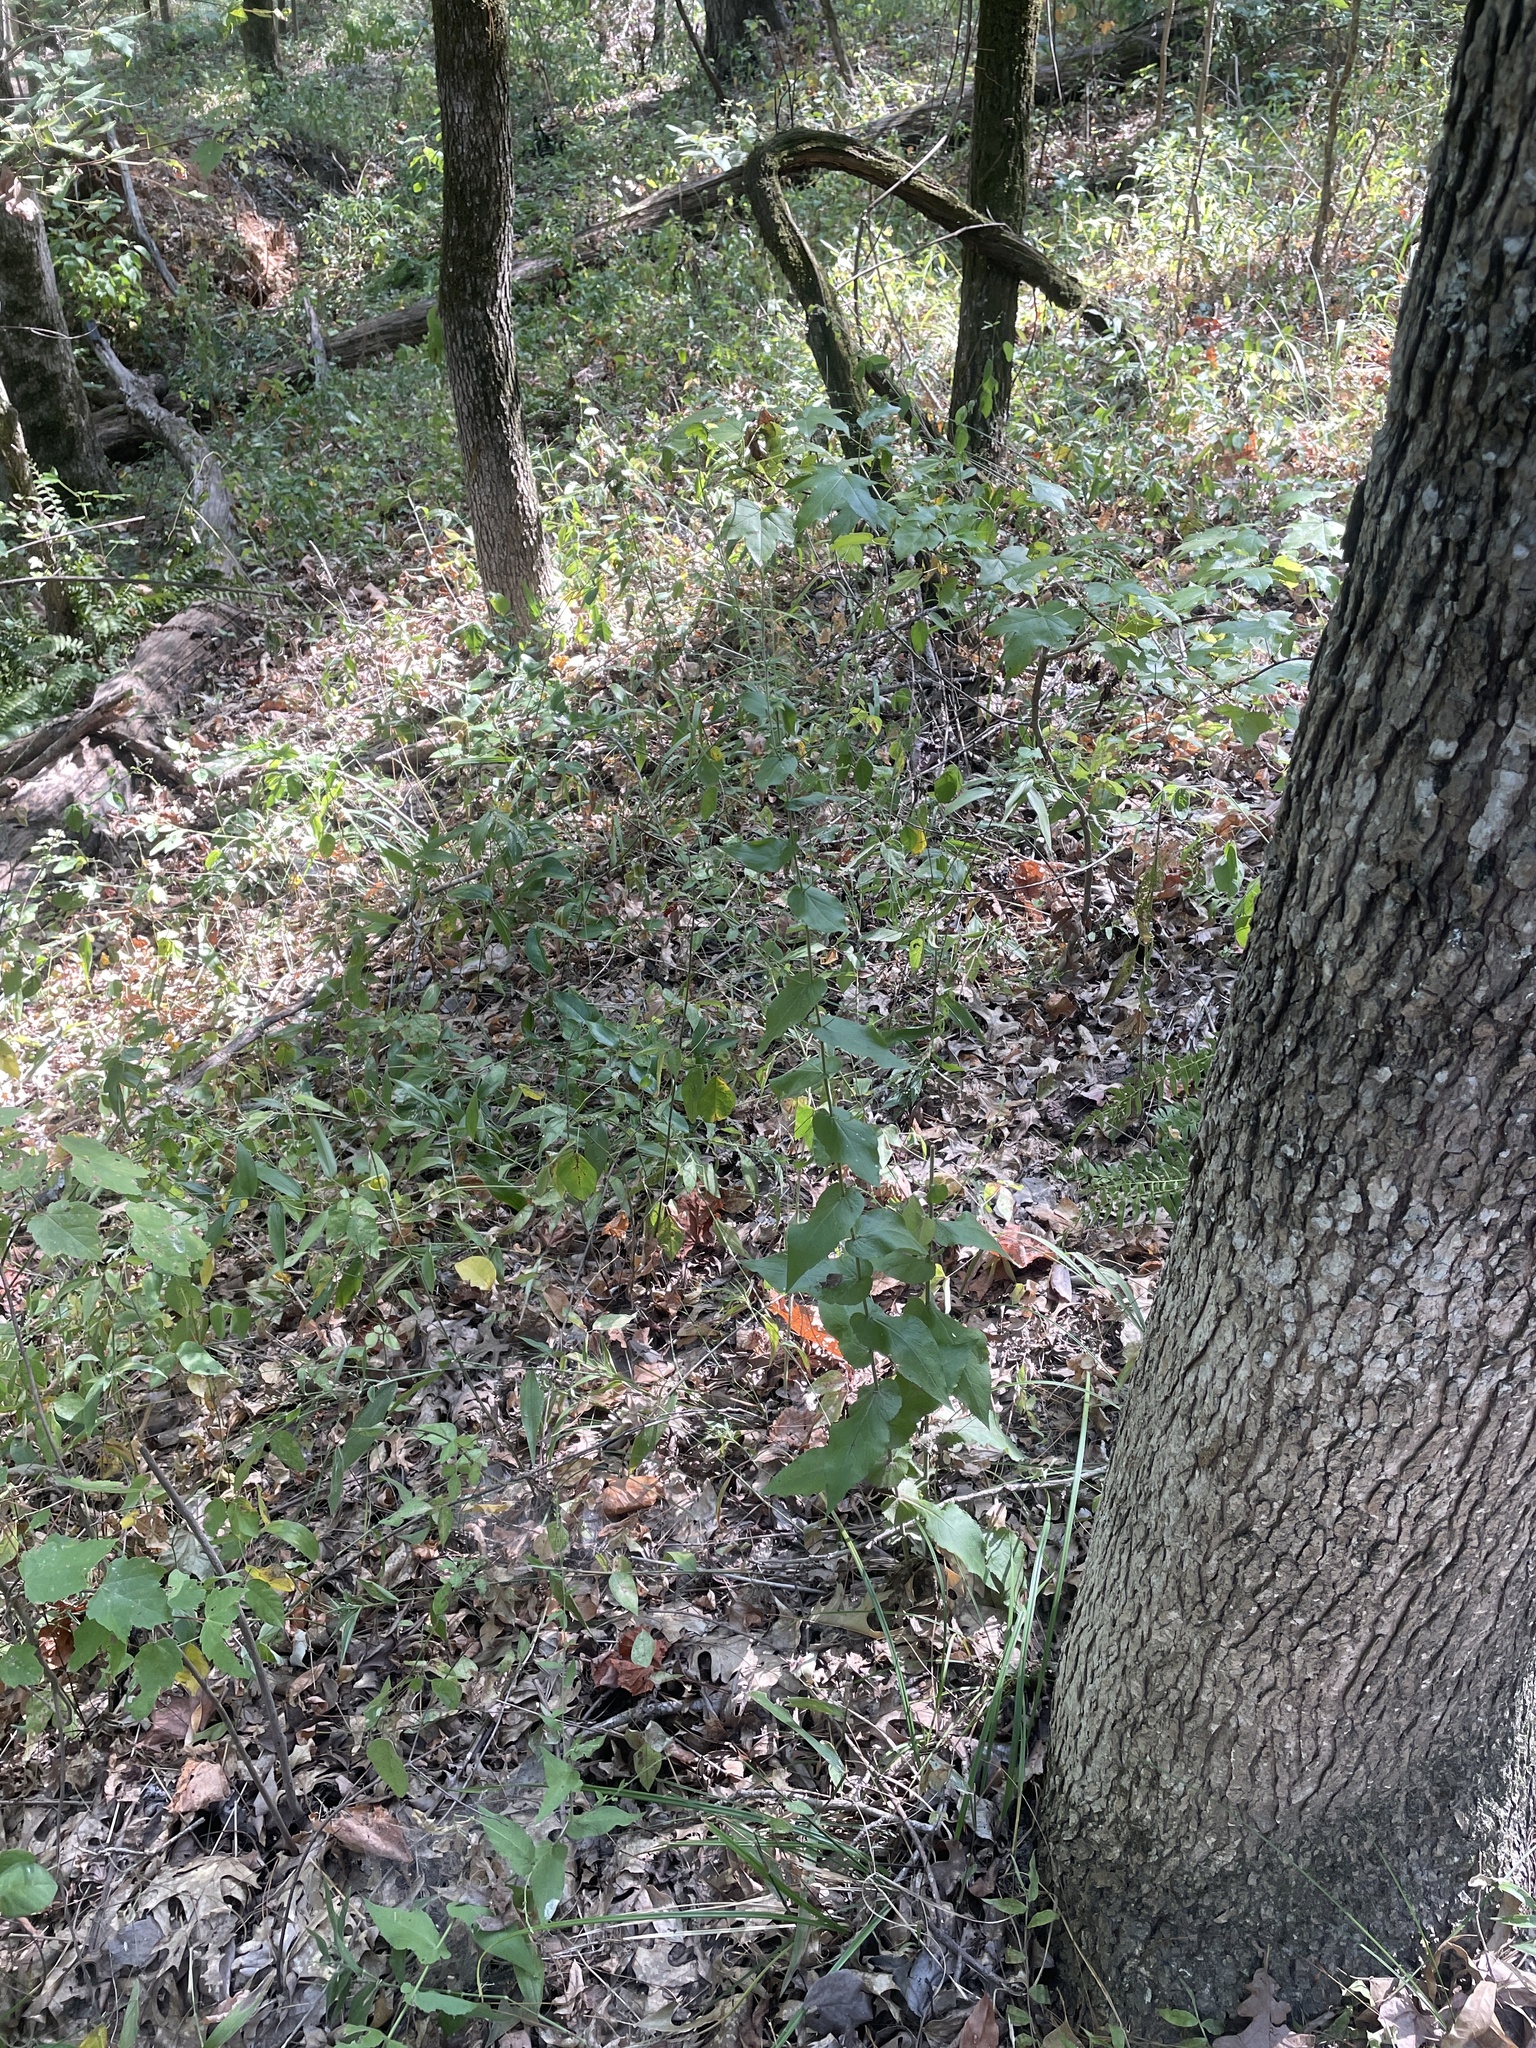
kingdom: Plantae
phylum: Tracheophyta
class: Magnoliopsida
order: Asterales
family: Asteraceae
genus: Solidago
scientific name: Solidago auriculata
